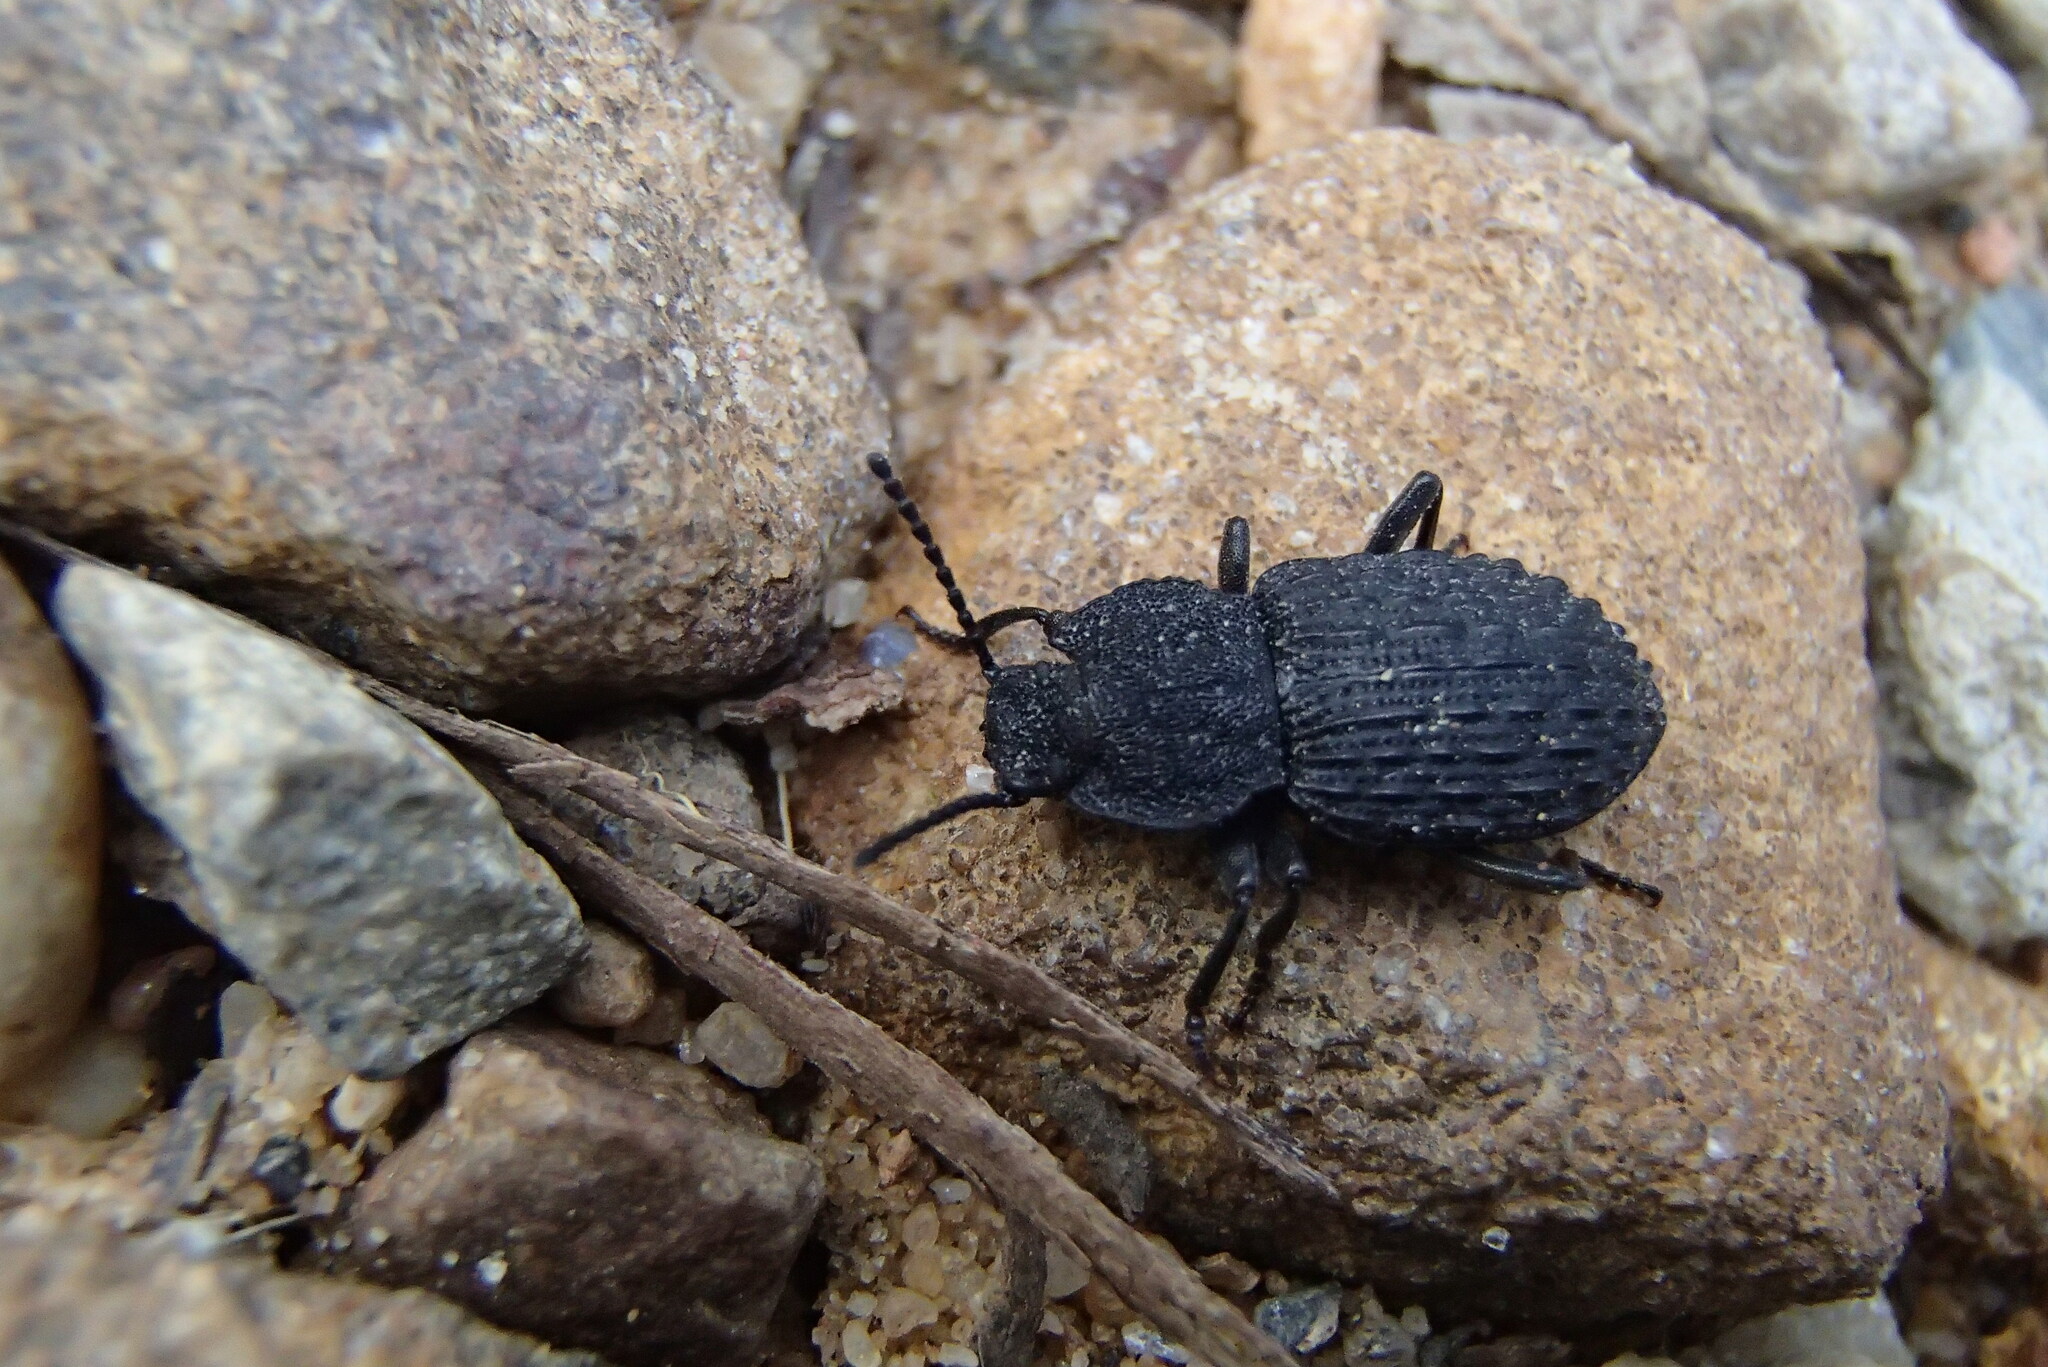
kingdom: Animalia
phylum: Arthropoda
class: Insecta
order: Coleoptera
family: Tenebrionidae
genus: Seirotrana
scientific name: Seirotrana
